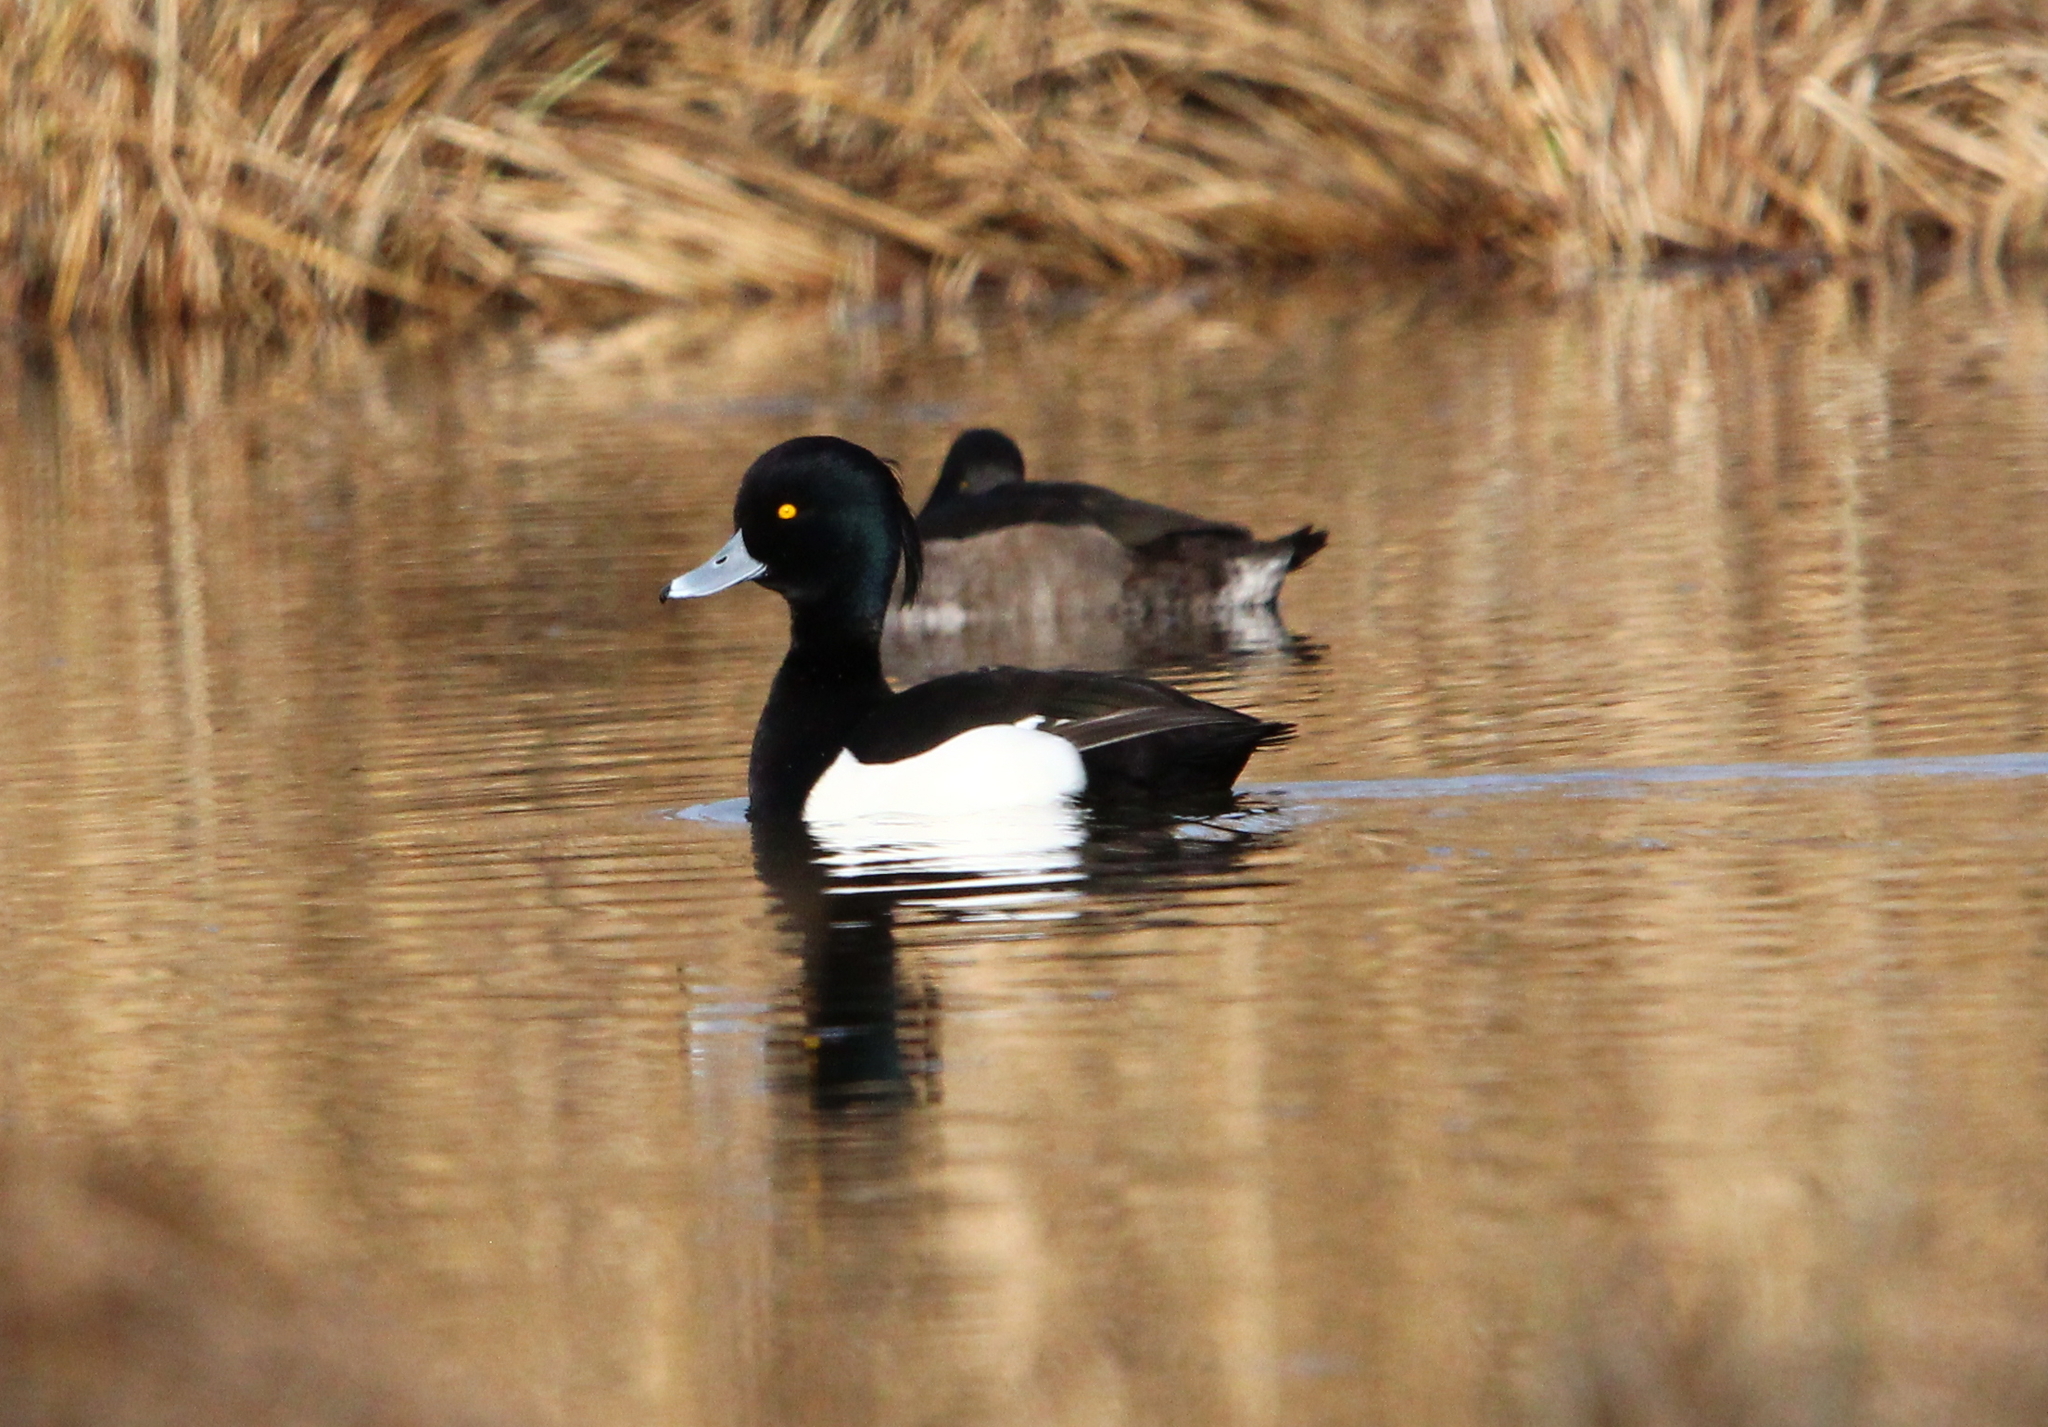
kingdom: Animalia
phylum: Chordata
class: Aves
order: Anseriformes
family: Anatidae
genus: Aythya
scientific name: Aythya fuligula
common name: Tufted duck
